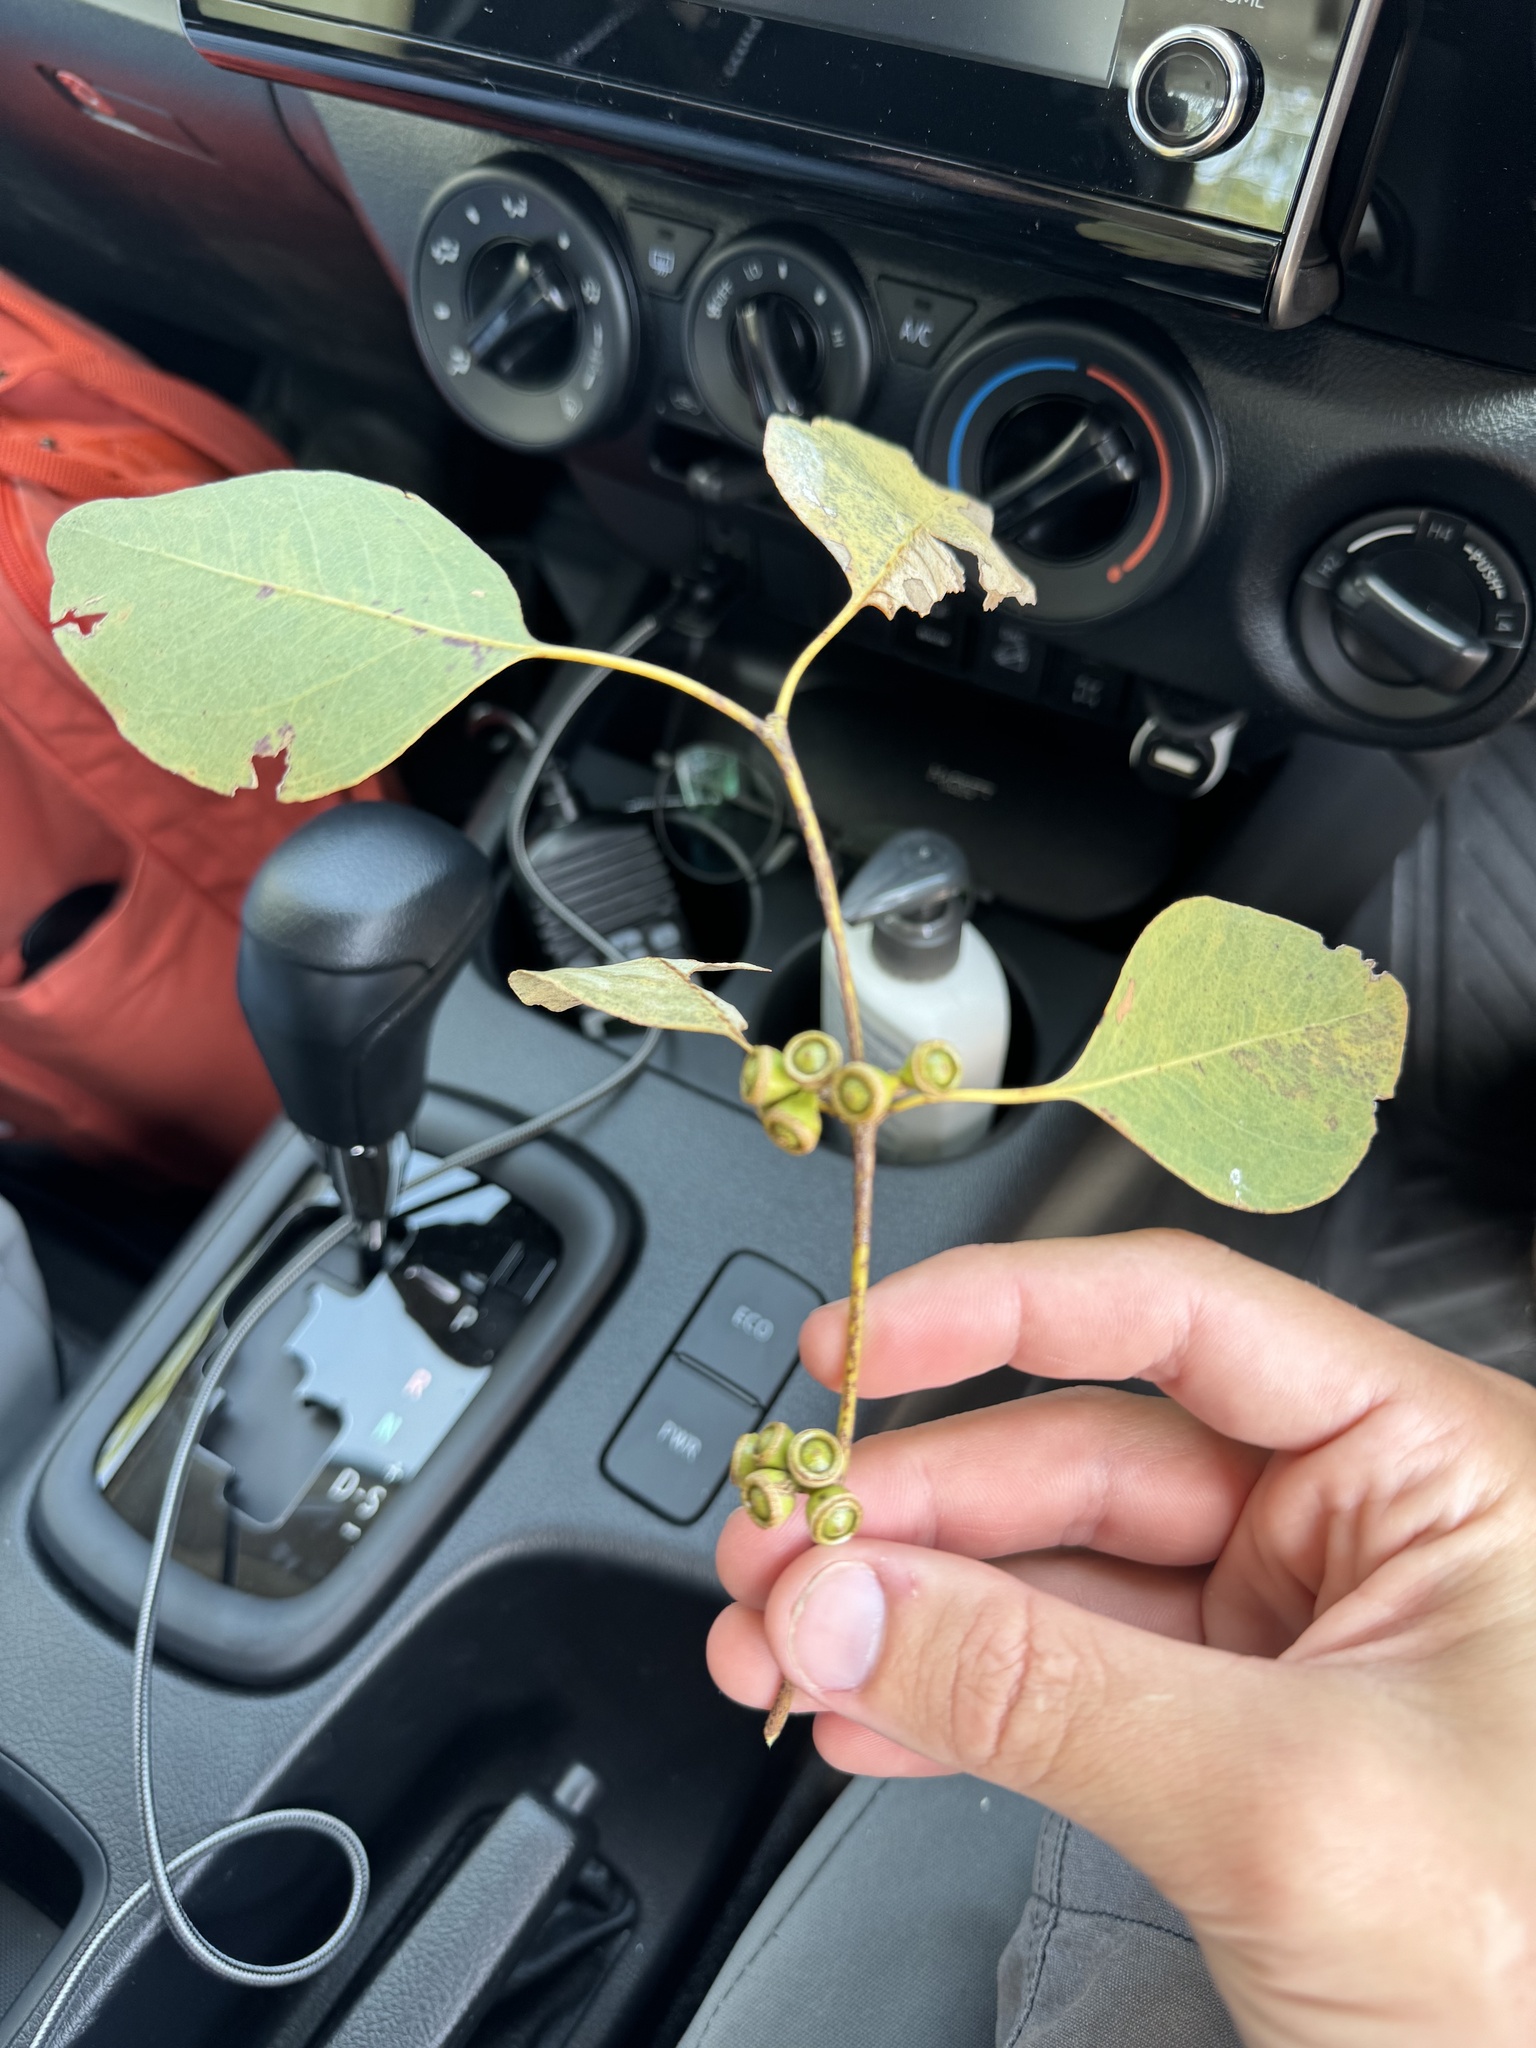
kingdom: Plantae
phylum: Tracheophyta
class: Magnoliopsida
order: Myrtales
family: Myrtaceae
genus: Eucalyptus
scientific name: Eucalyptus platyphylla
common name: Poplar-gum
